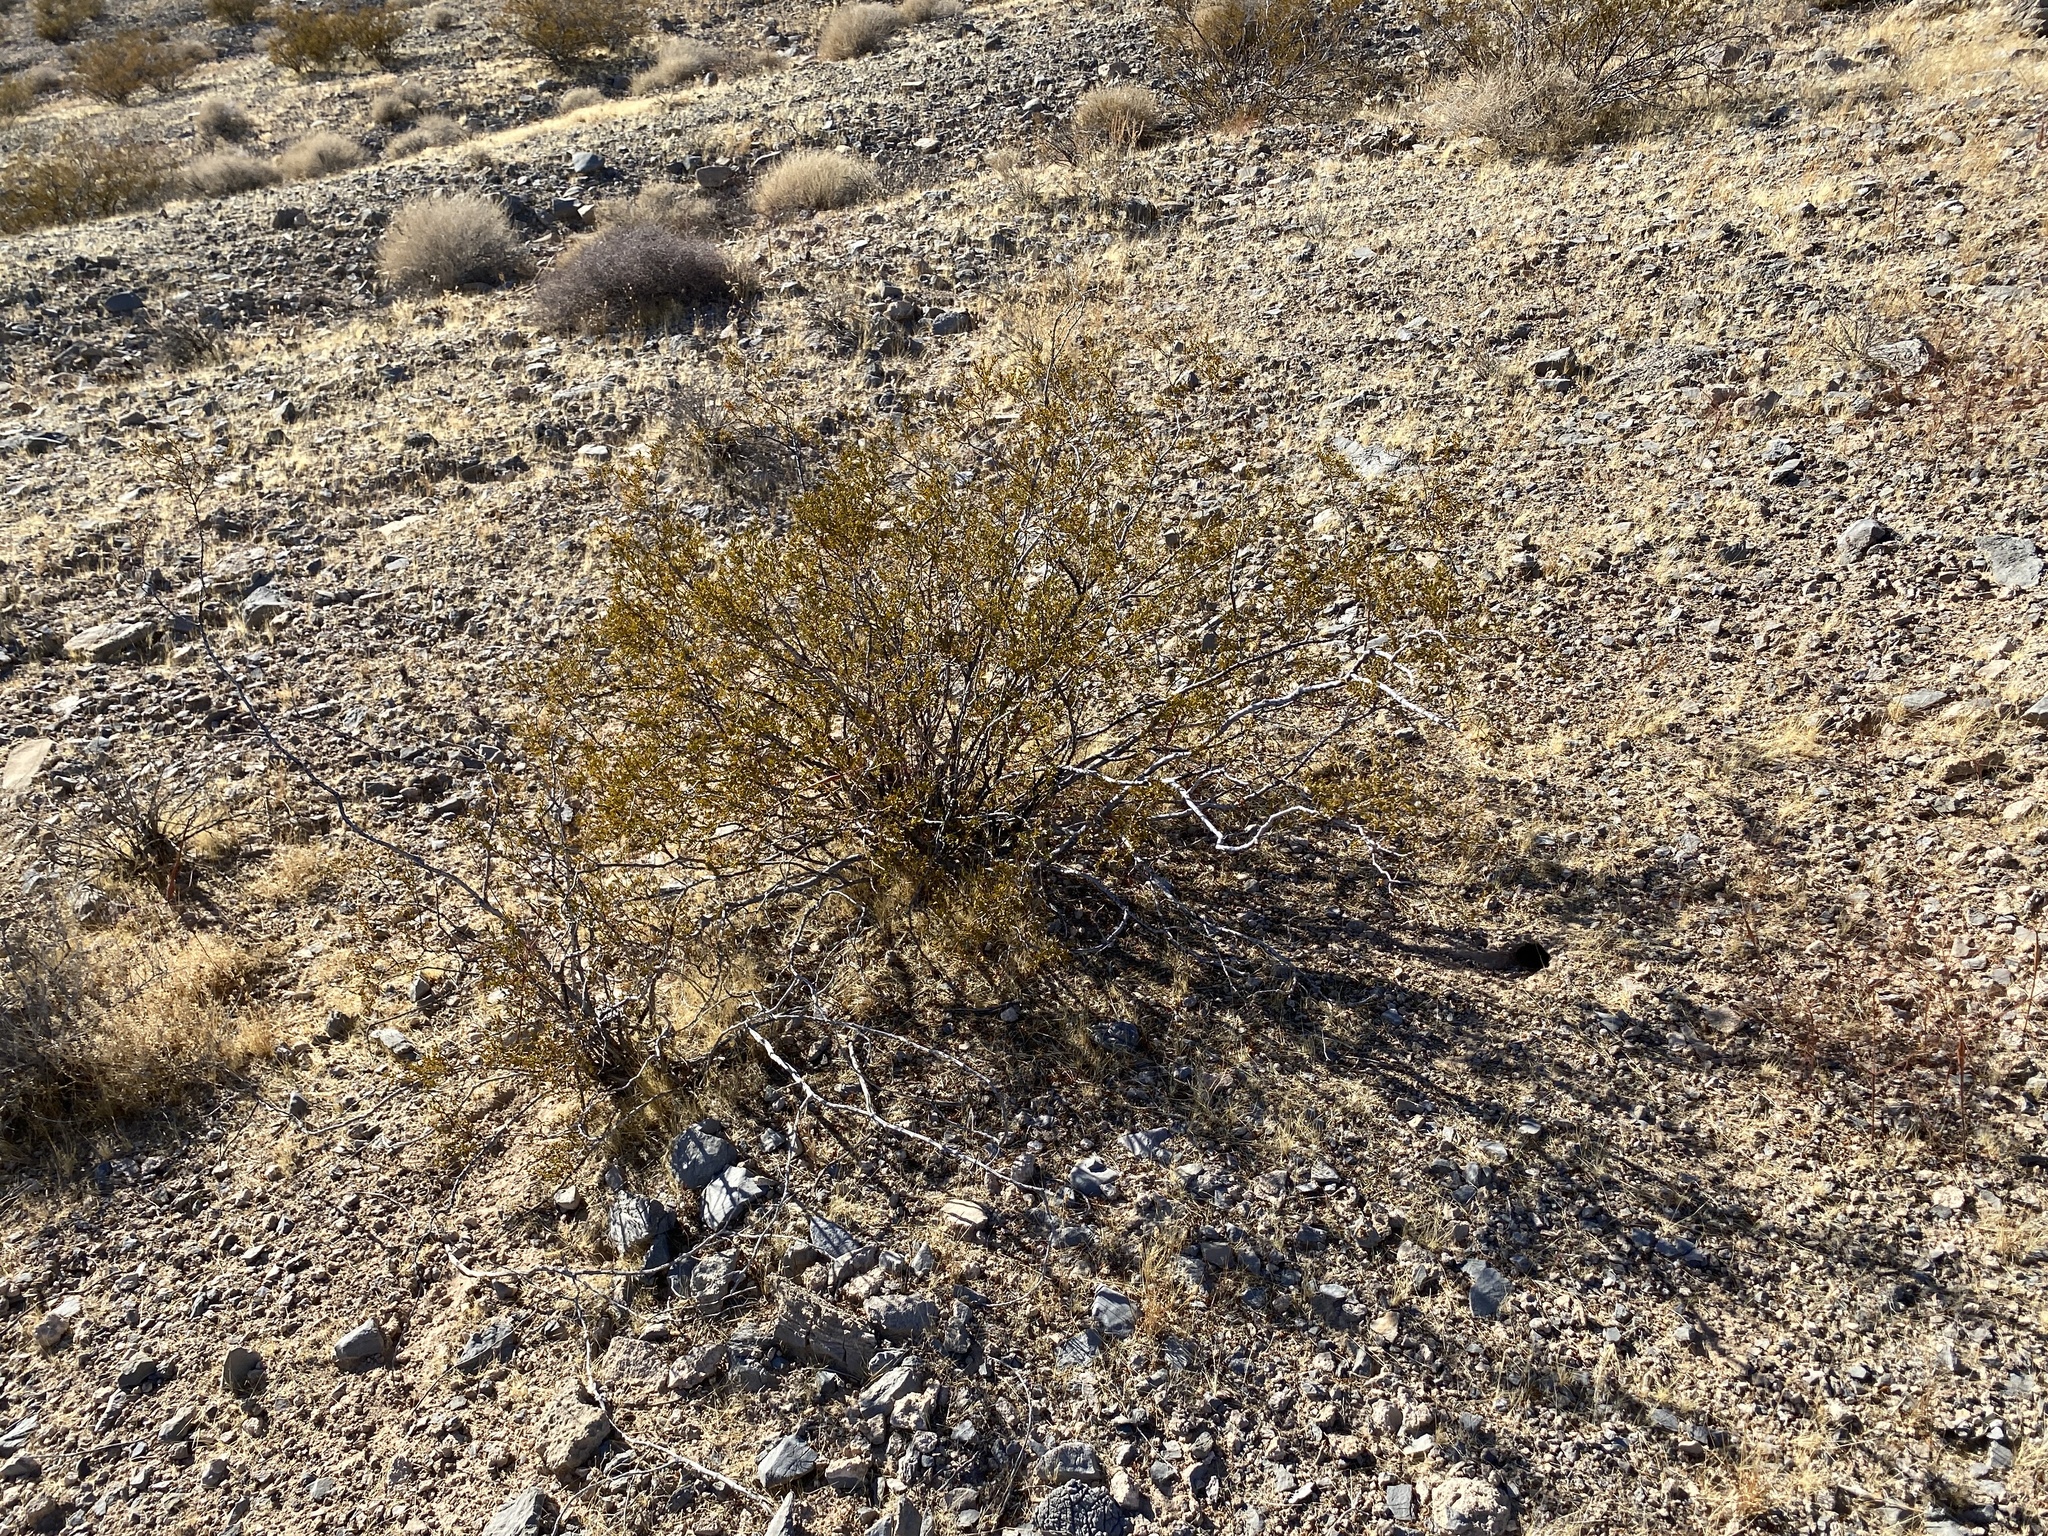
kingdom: Plantae
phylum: Tracheophyta
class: Magnoliopsida
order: Zygophyllales
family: Zygophyllaceae
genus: Larrea
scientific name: Larrea tridentata
